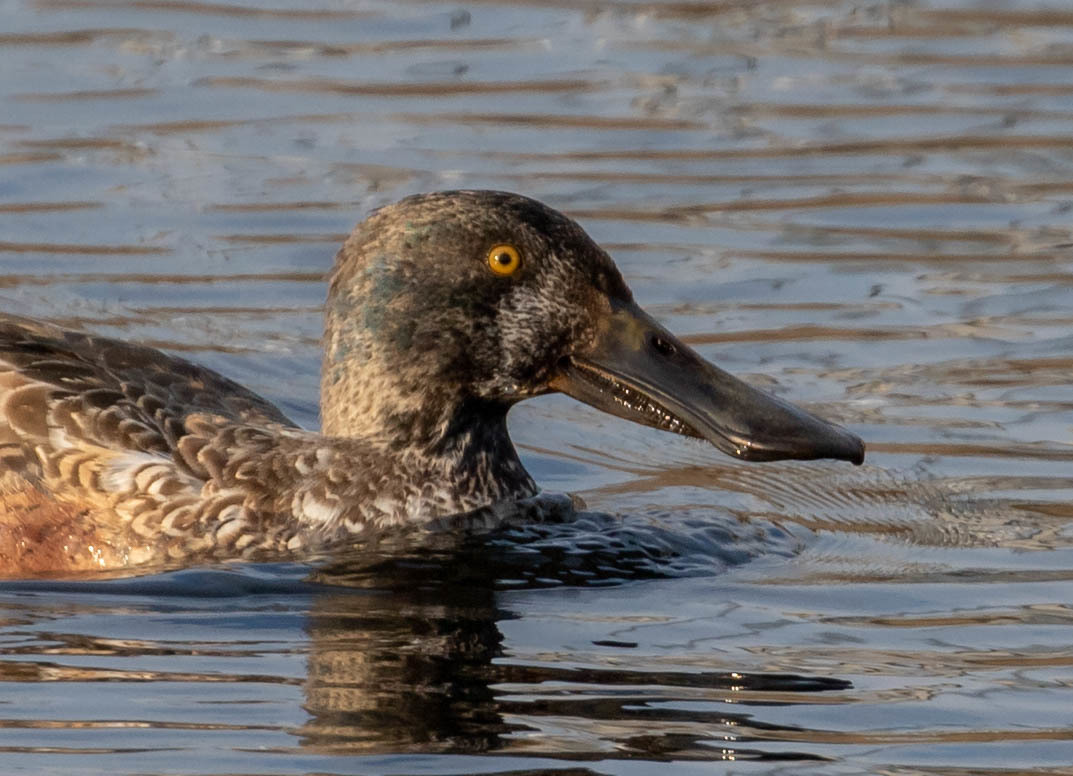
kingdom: Animalia
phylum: Chordata
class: Aves
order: Anseriformes
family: Anatidae
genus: Spatula
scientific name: Spatula clypeata
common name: Northern shoveler
